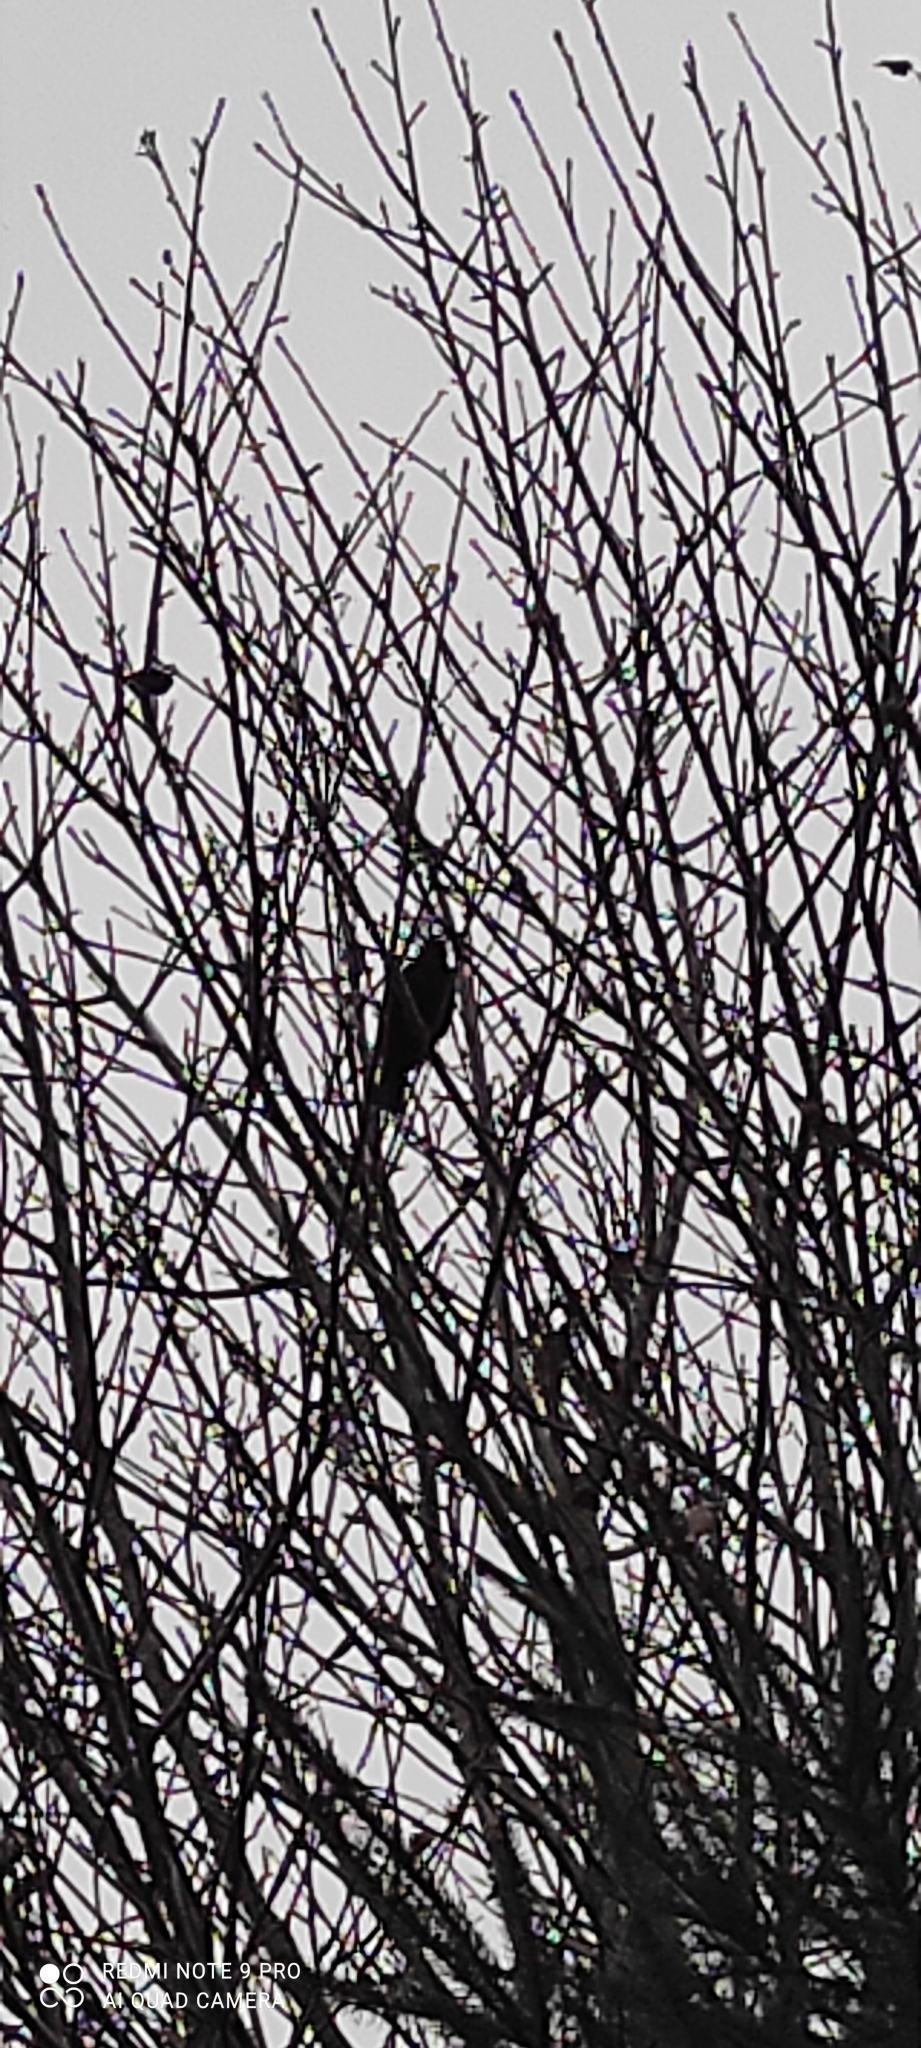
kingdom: Animalia
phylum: Chordata
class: Aves
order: Passeriformes
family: Turdidae
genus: Turdus
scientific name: Turdus merula
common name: Common blackbird
